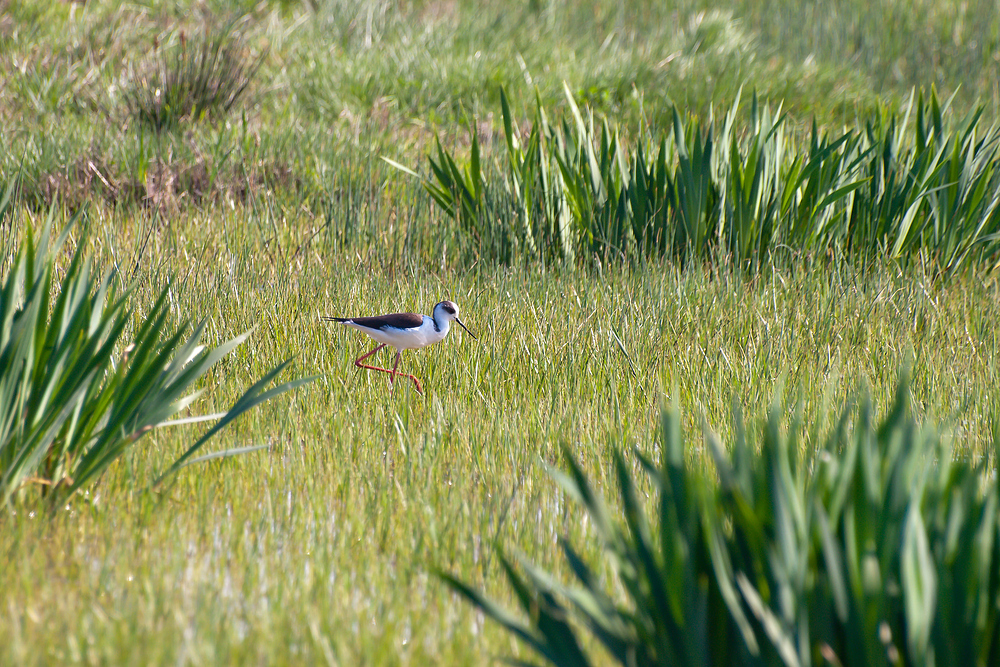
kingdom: Animalia
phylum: Chordata
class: Aves
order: Charadriiformes
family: Recurvirostridae
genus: Himantopus
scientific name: Himantopus himantopus
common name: Black-winged stilt
